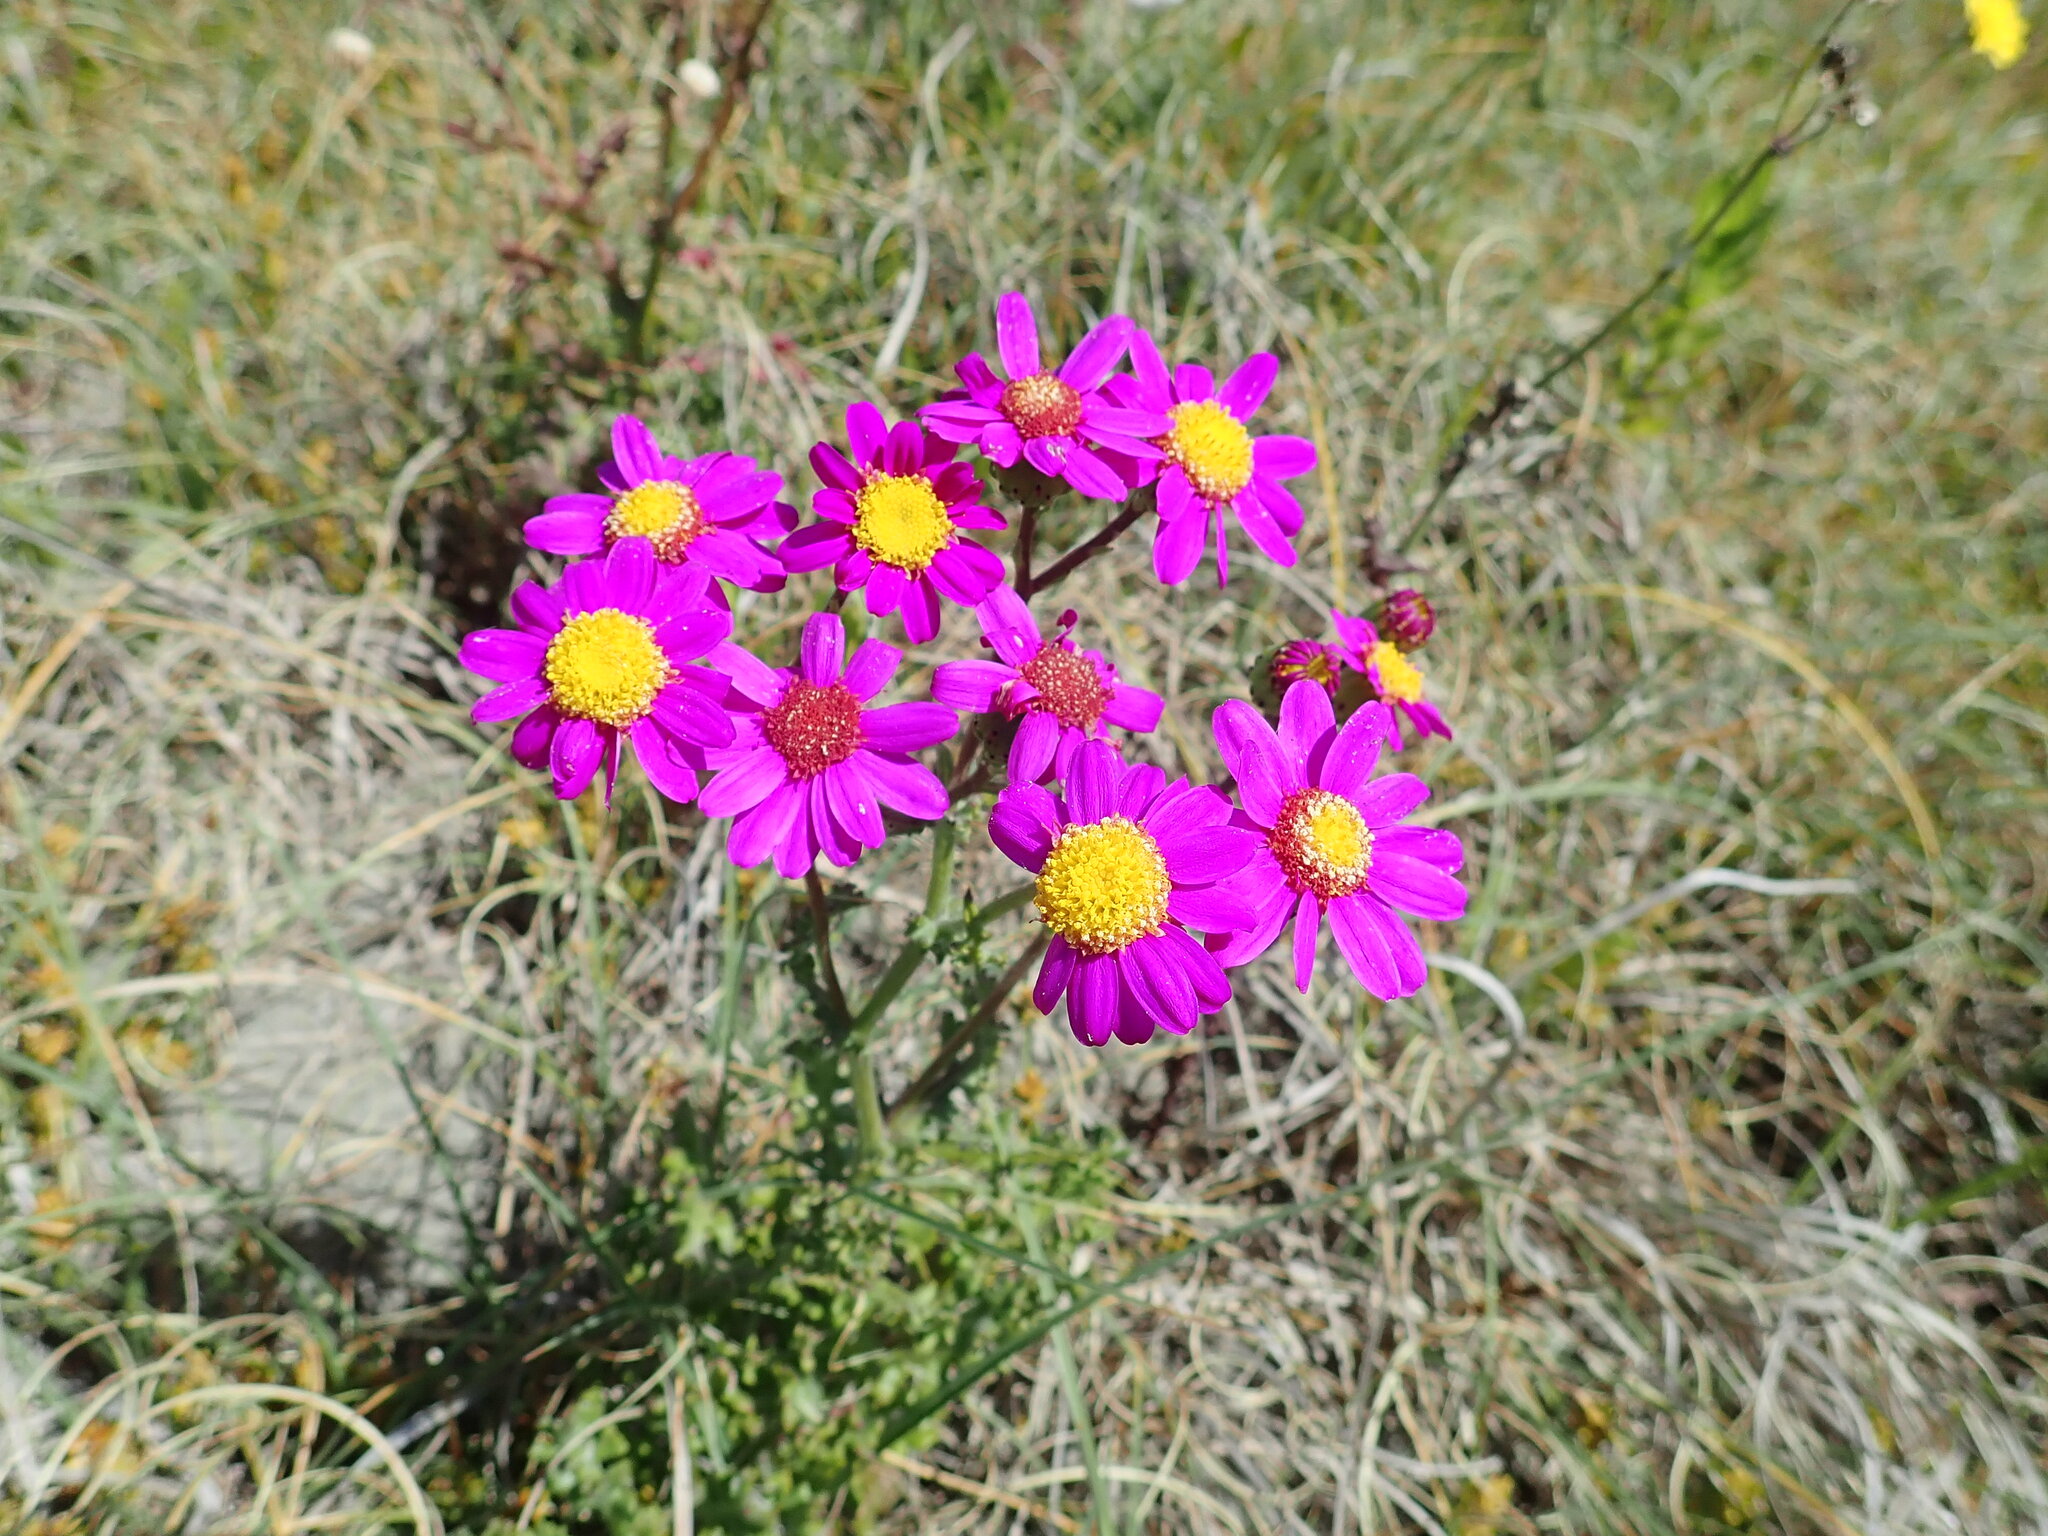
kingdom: Plantae
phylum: Tracheophyta
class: Magnoliopsida
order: Asterales
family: Asteraceae
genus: Senecio
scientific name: Senecio elegans
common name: Purple groundsel
